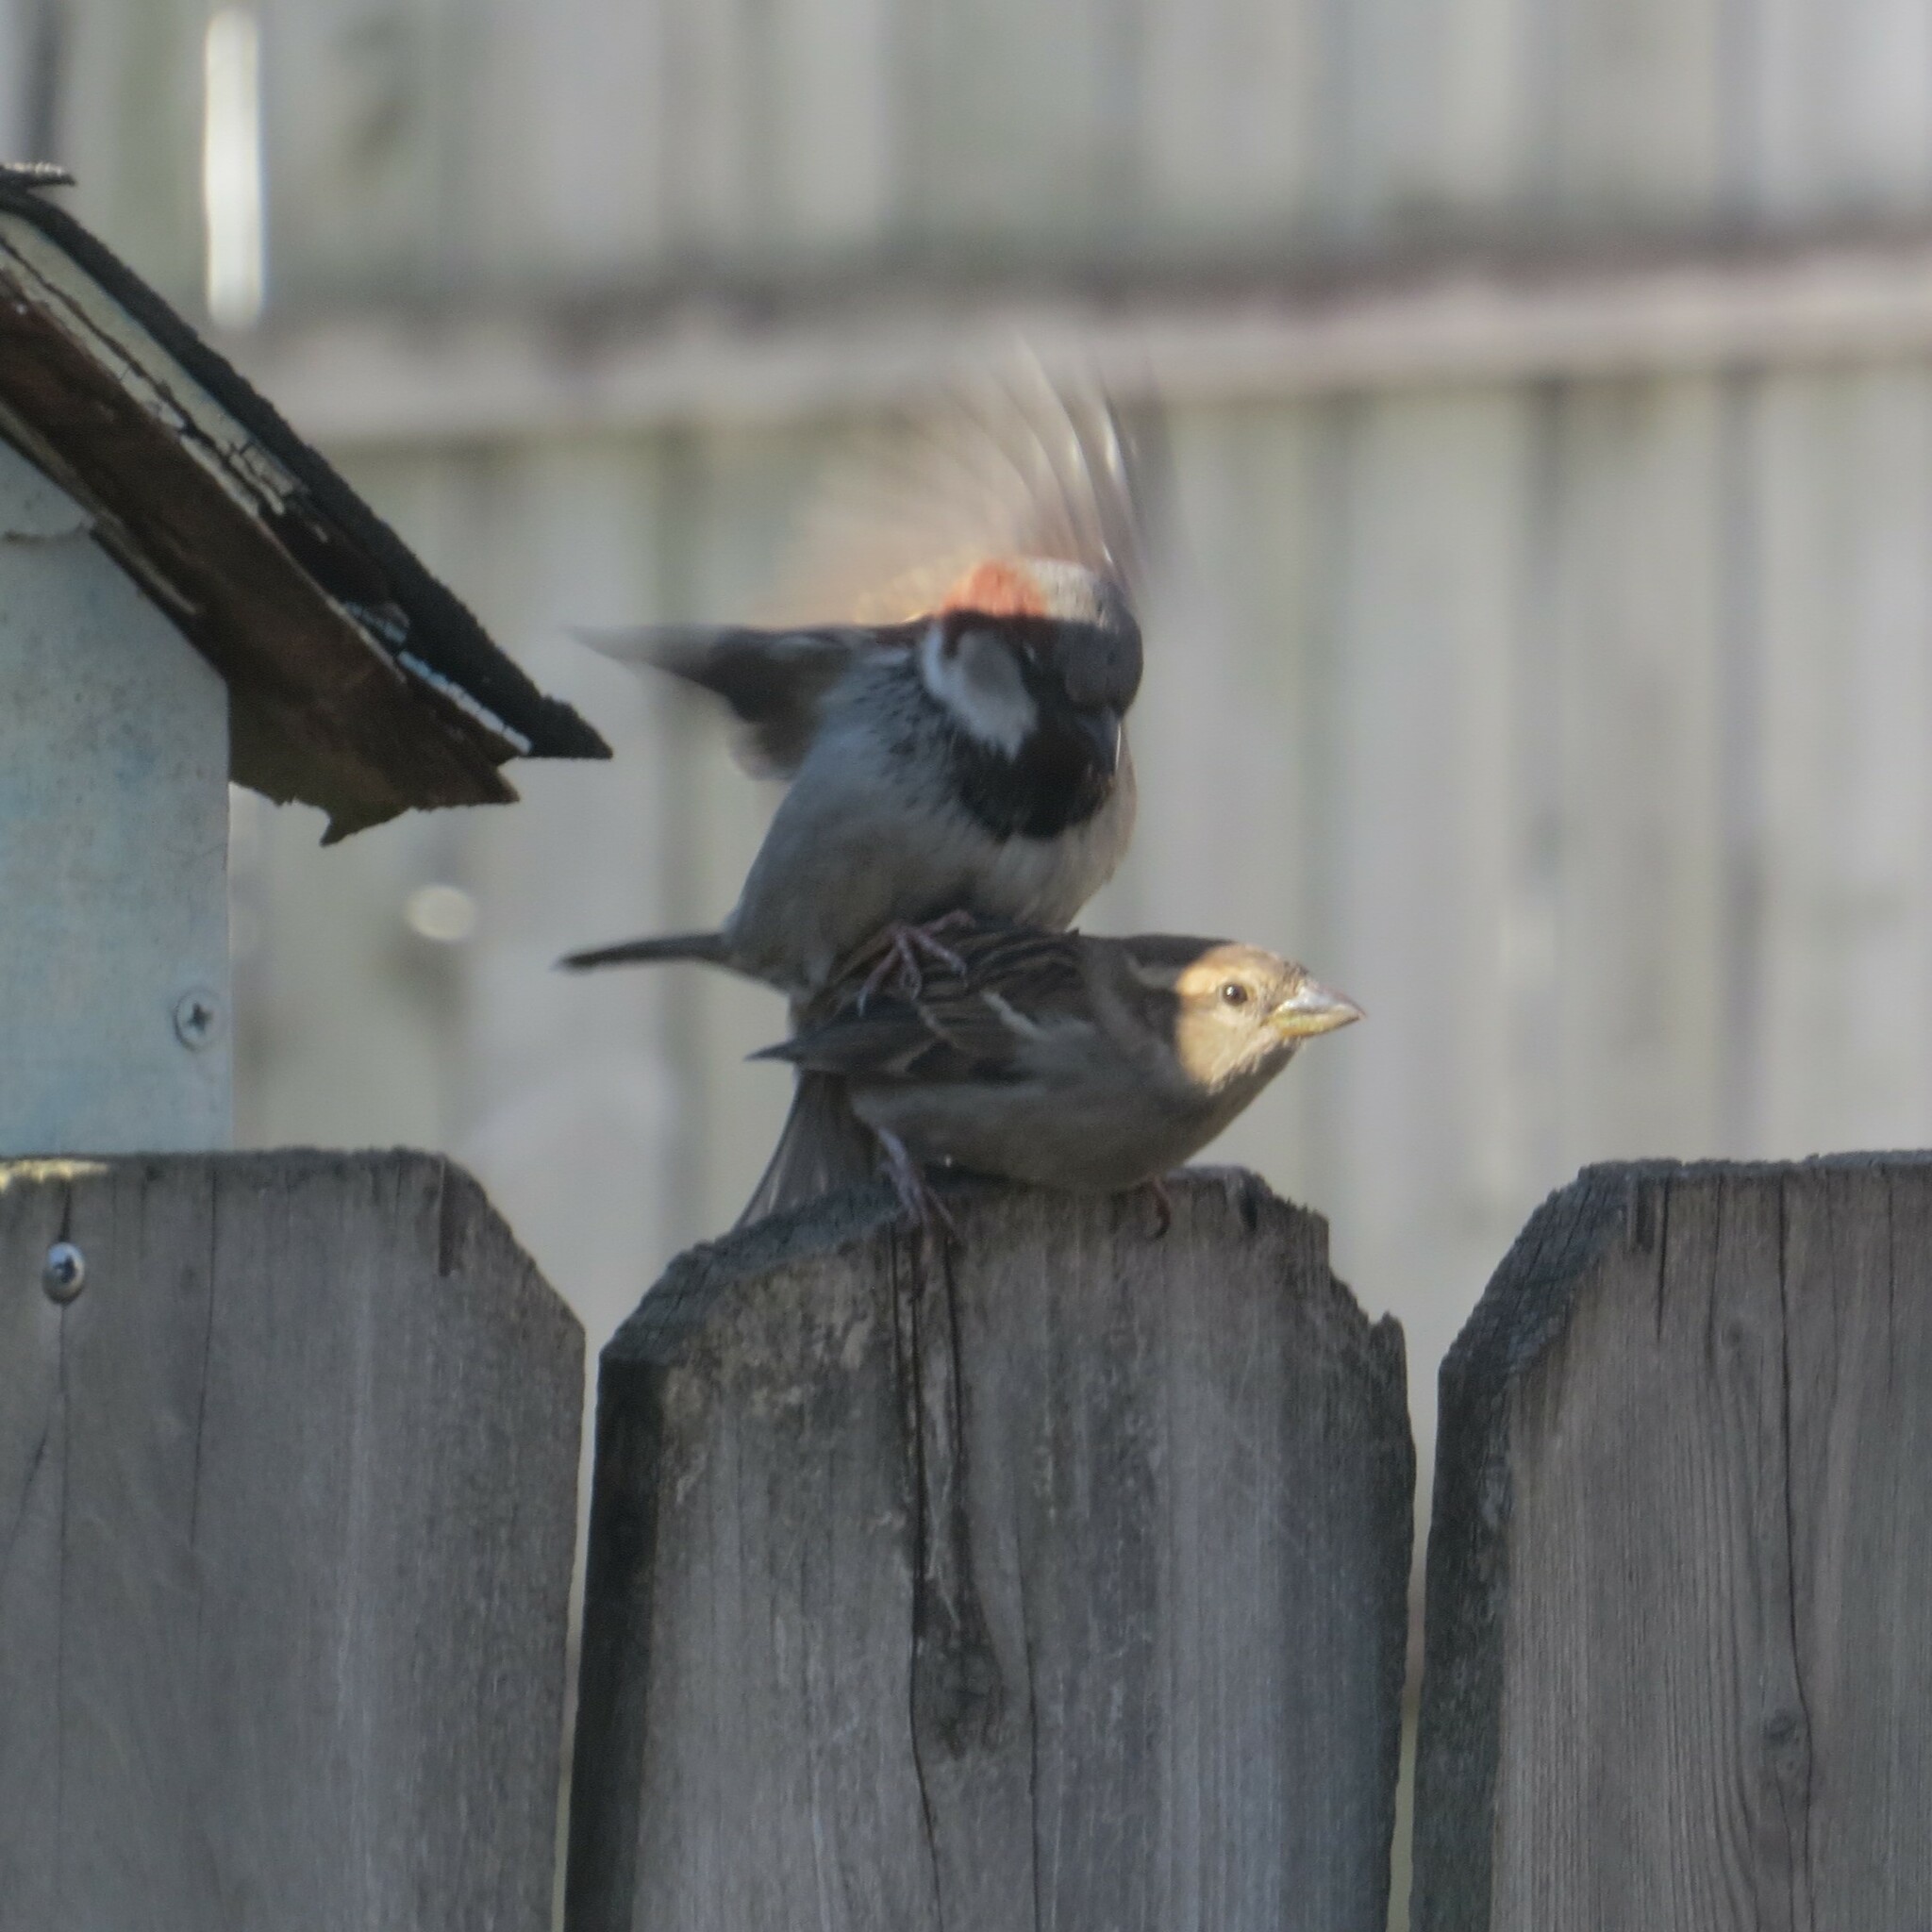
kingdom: Animalia
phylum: Chordata
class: Aves
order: Passeriformes
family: Passeridae
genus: Passer
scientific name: Passer domesticus
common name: House sparrow
